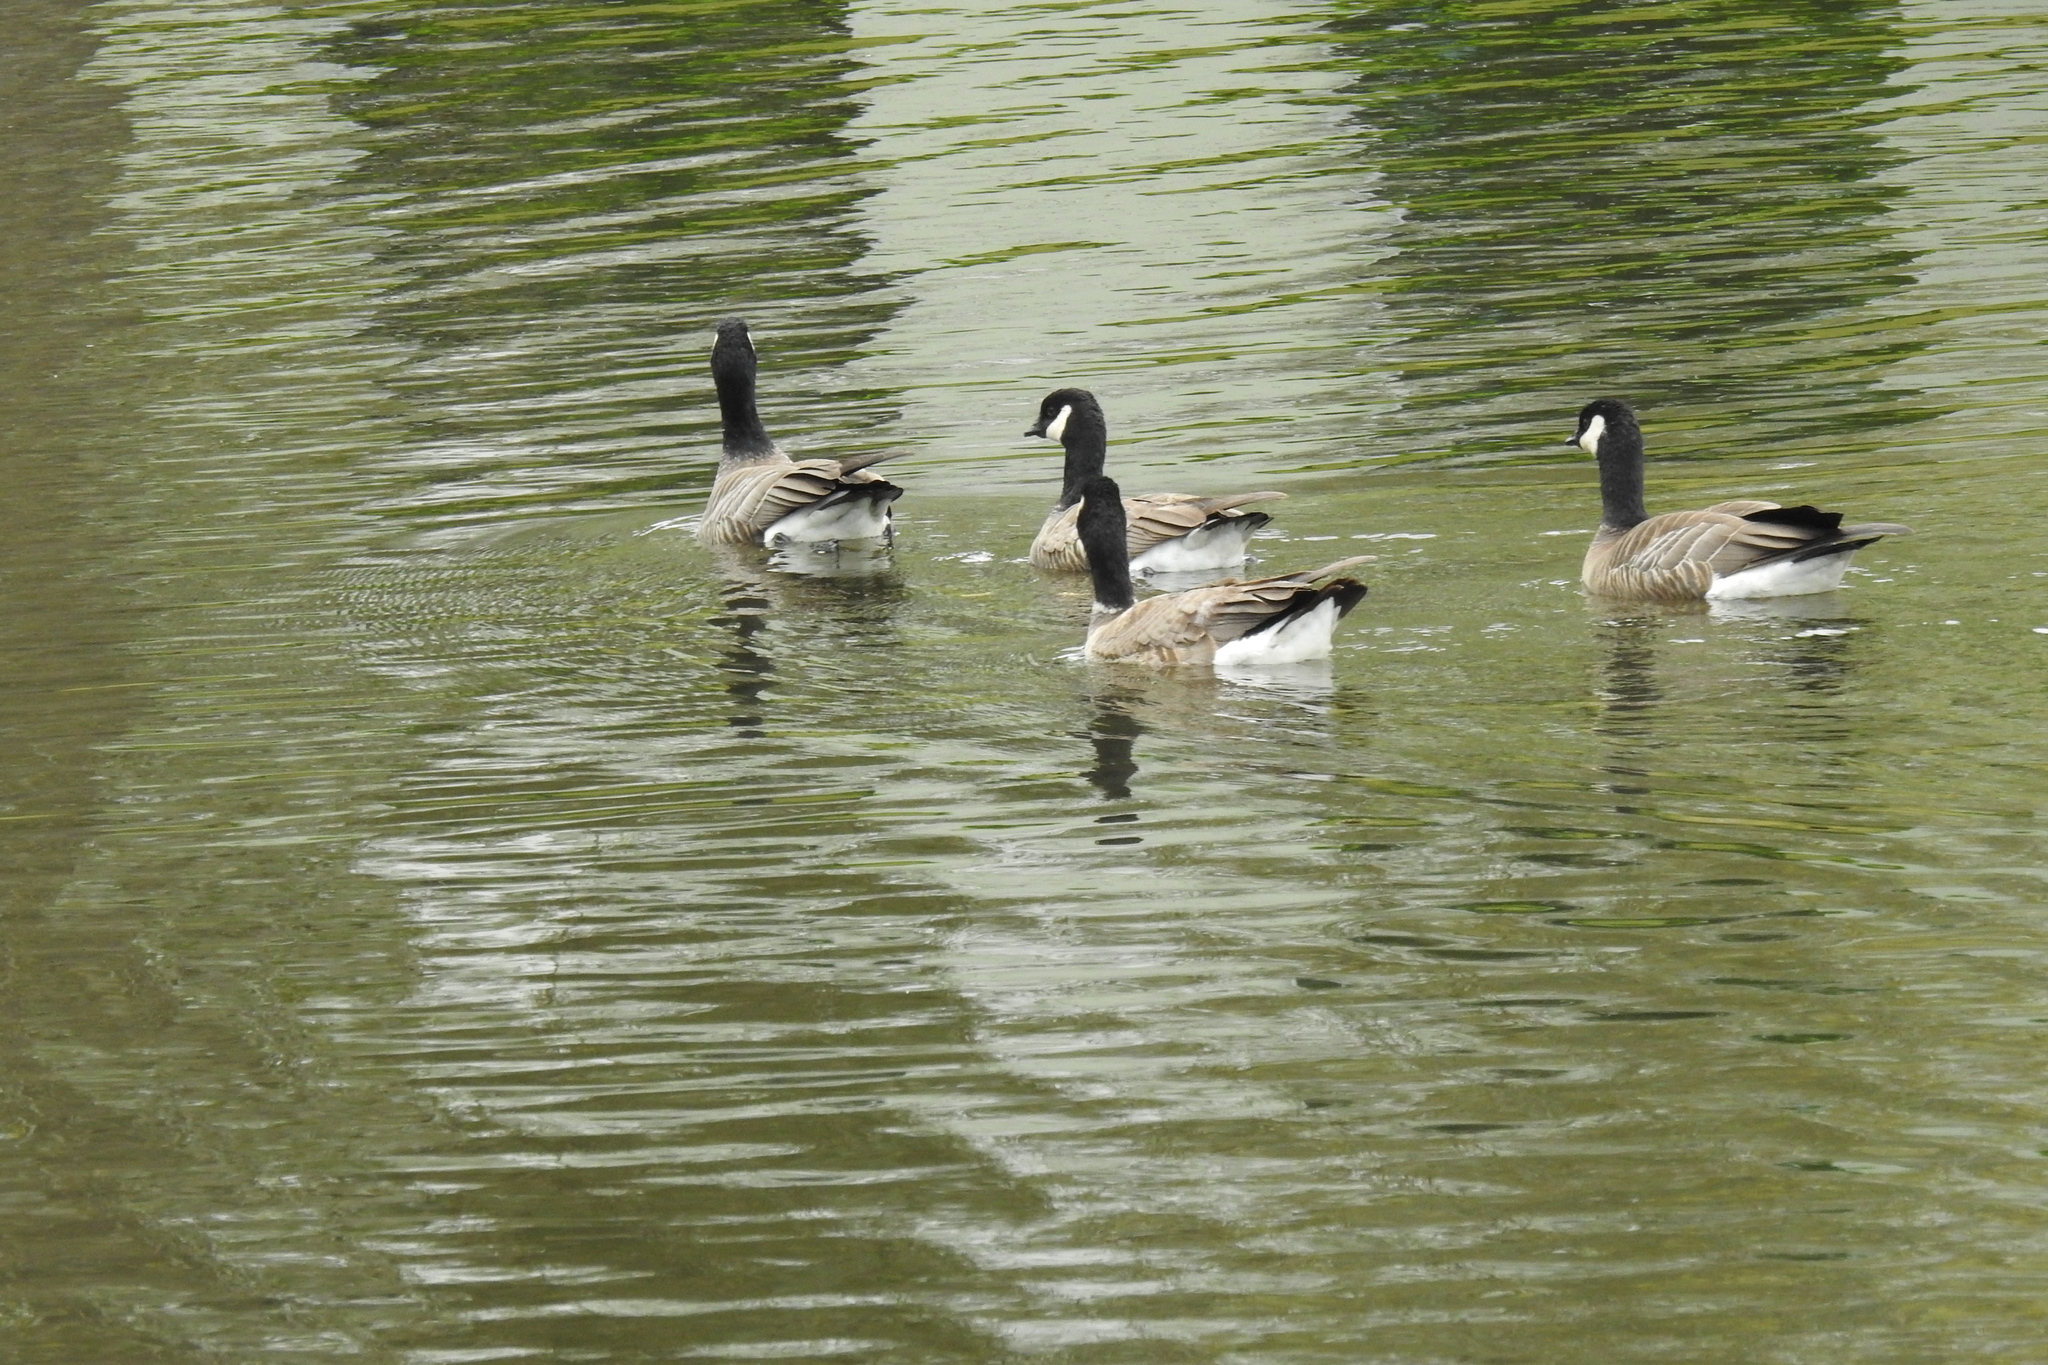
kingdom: Animalia
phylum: Chordata
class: Aves
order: Anseriformes
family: Anatidae
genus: Branta
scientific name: Branta hutchinsii
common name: Cackling goose
